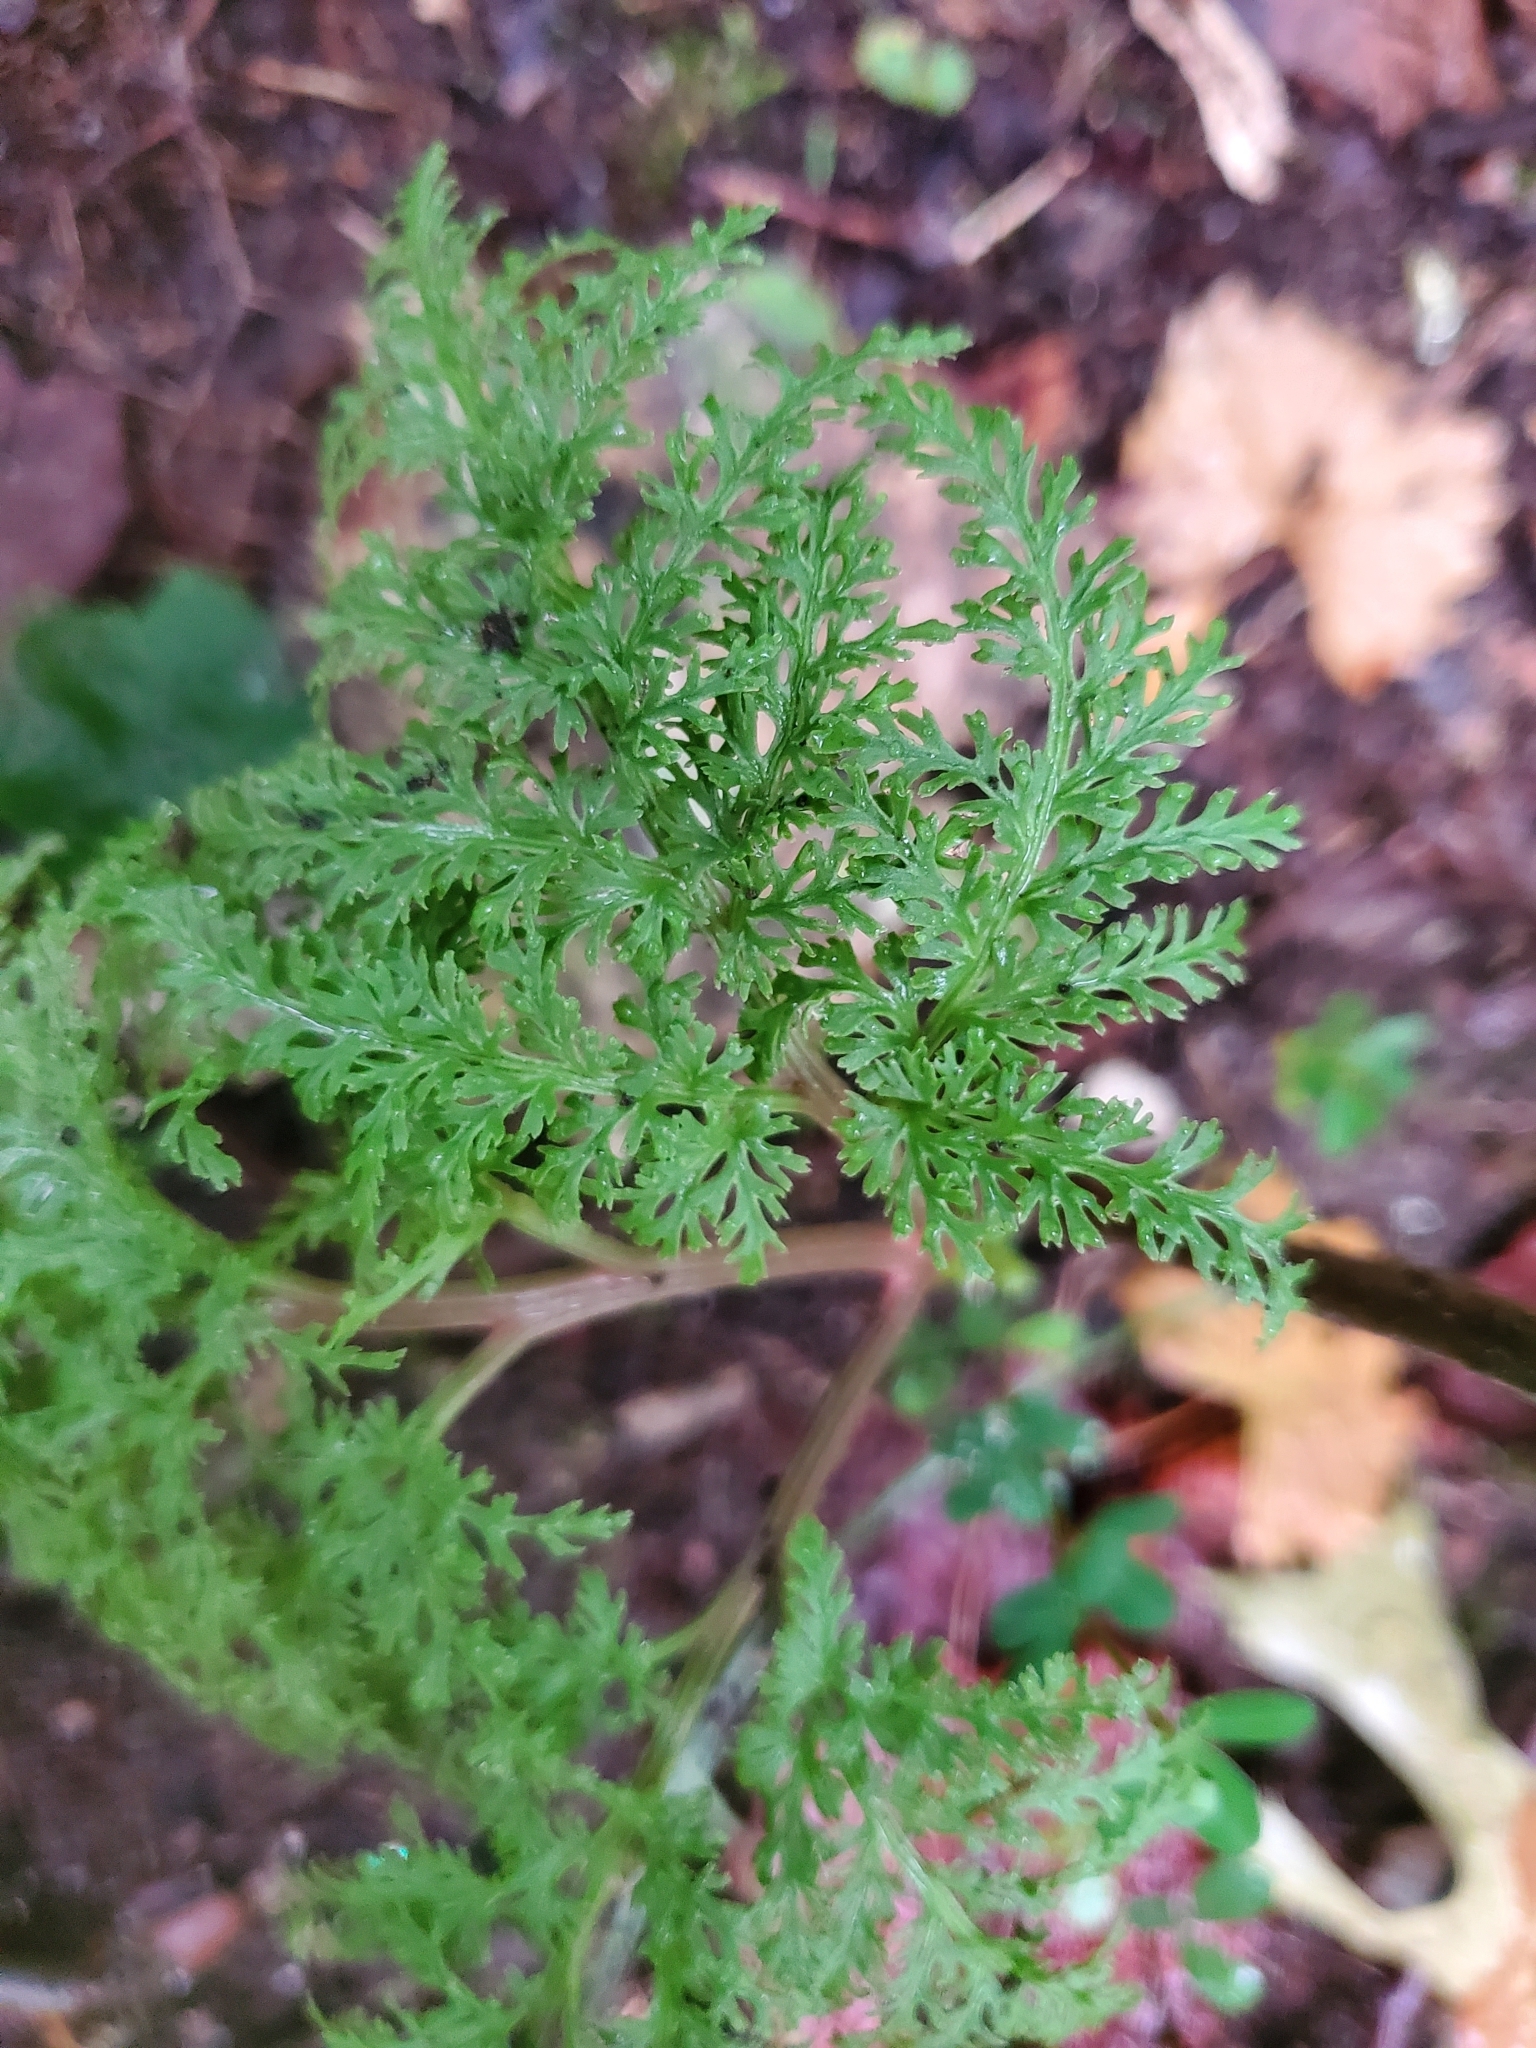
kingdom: Plantae
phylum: Tracheophyta
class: Polypodiopsida
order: Ophioglossales
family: Ophioglossaceae
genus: Sceptridium
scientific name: Sceptridium dissectum
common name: Cut-leaved grapefern
